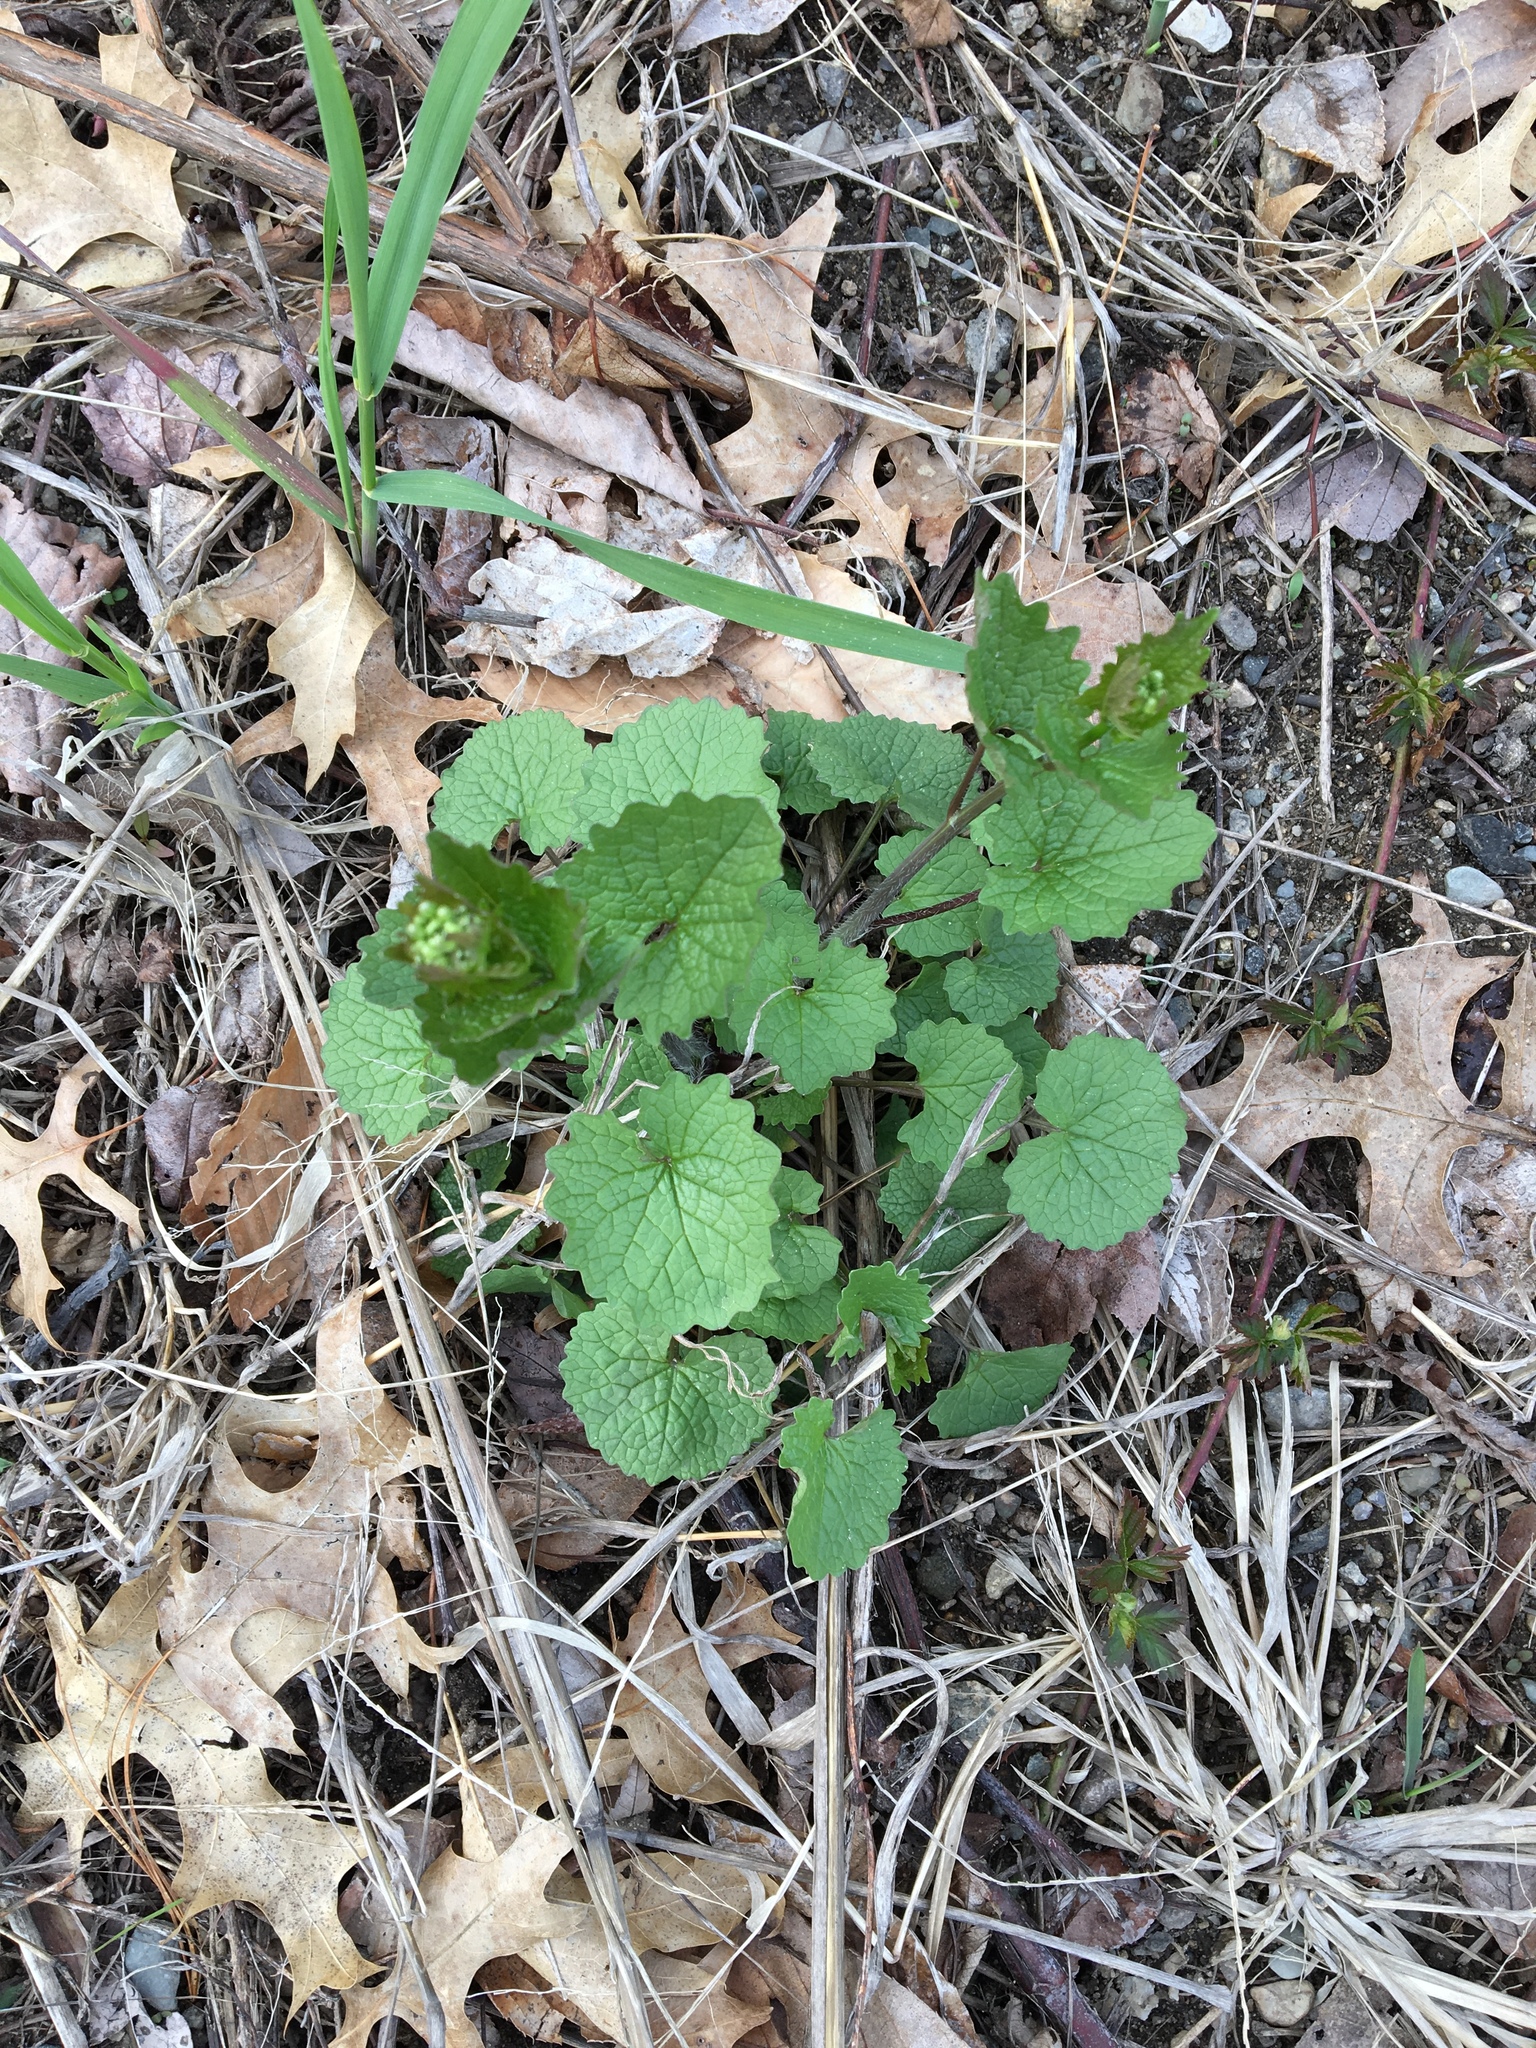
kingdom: Plantae
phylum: Tracheophyta
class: Magnoliopsida
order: Brassicales
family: Brassicaceae
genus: Alliaria
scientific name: Alliaria petiolata
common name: Garlic mustard
